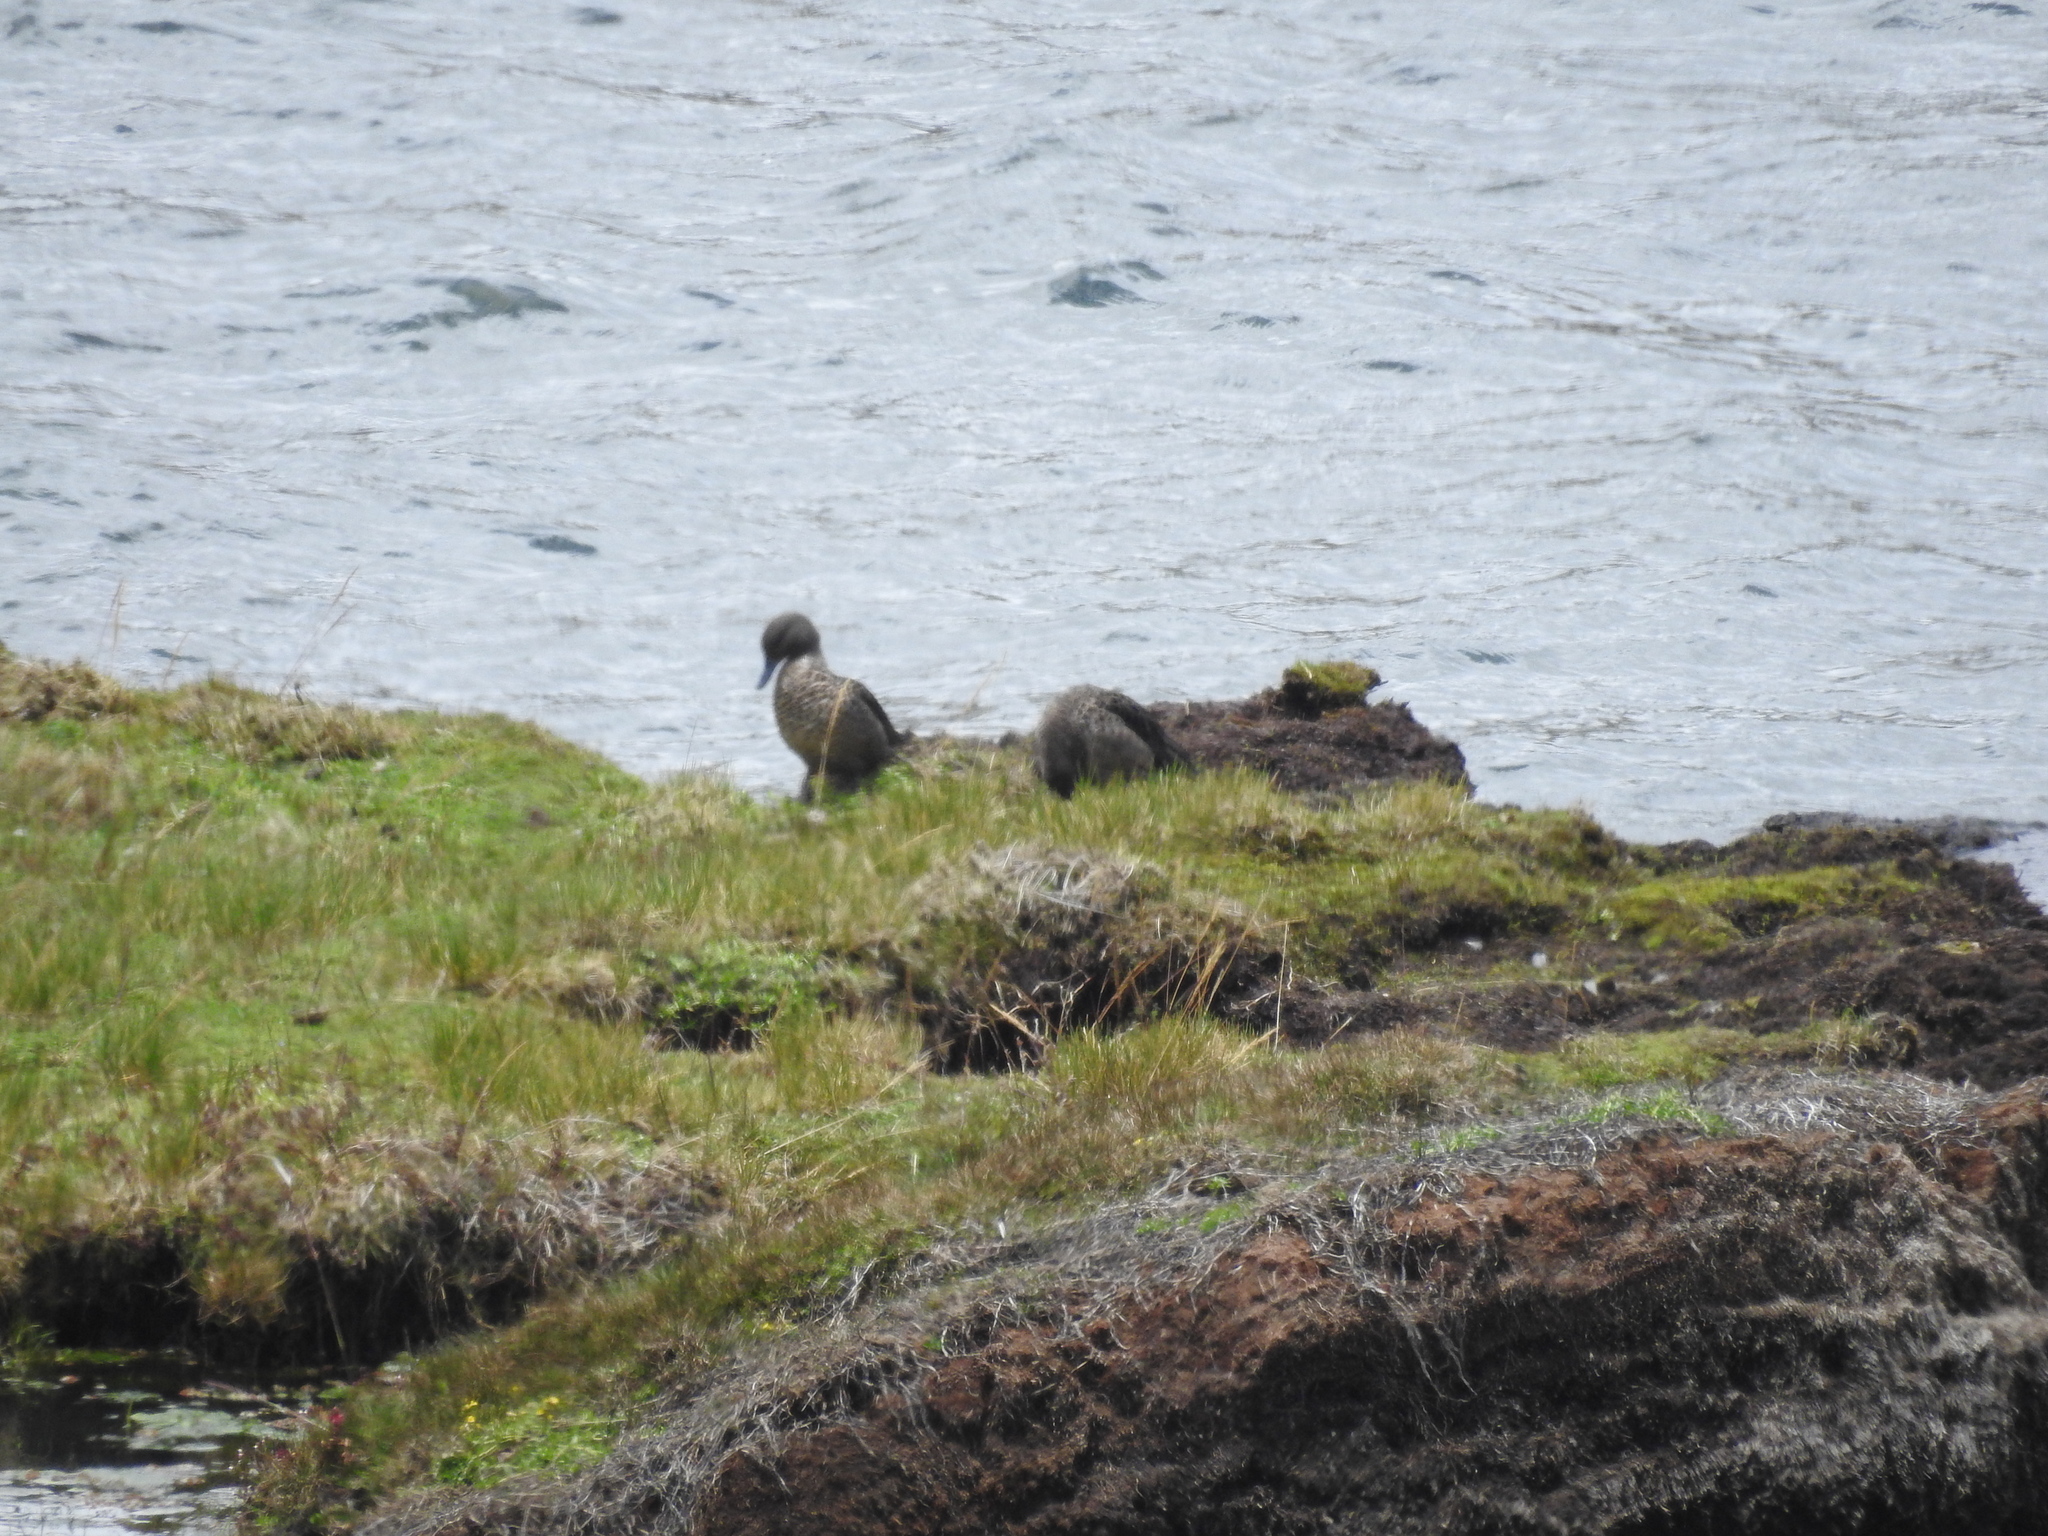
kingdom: Animalia
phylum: Chordata
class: Aves
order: Anseriformes
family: Anatidae
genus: Anas
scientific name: Anas andium
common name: Andean teal
